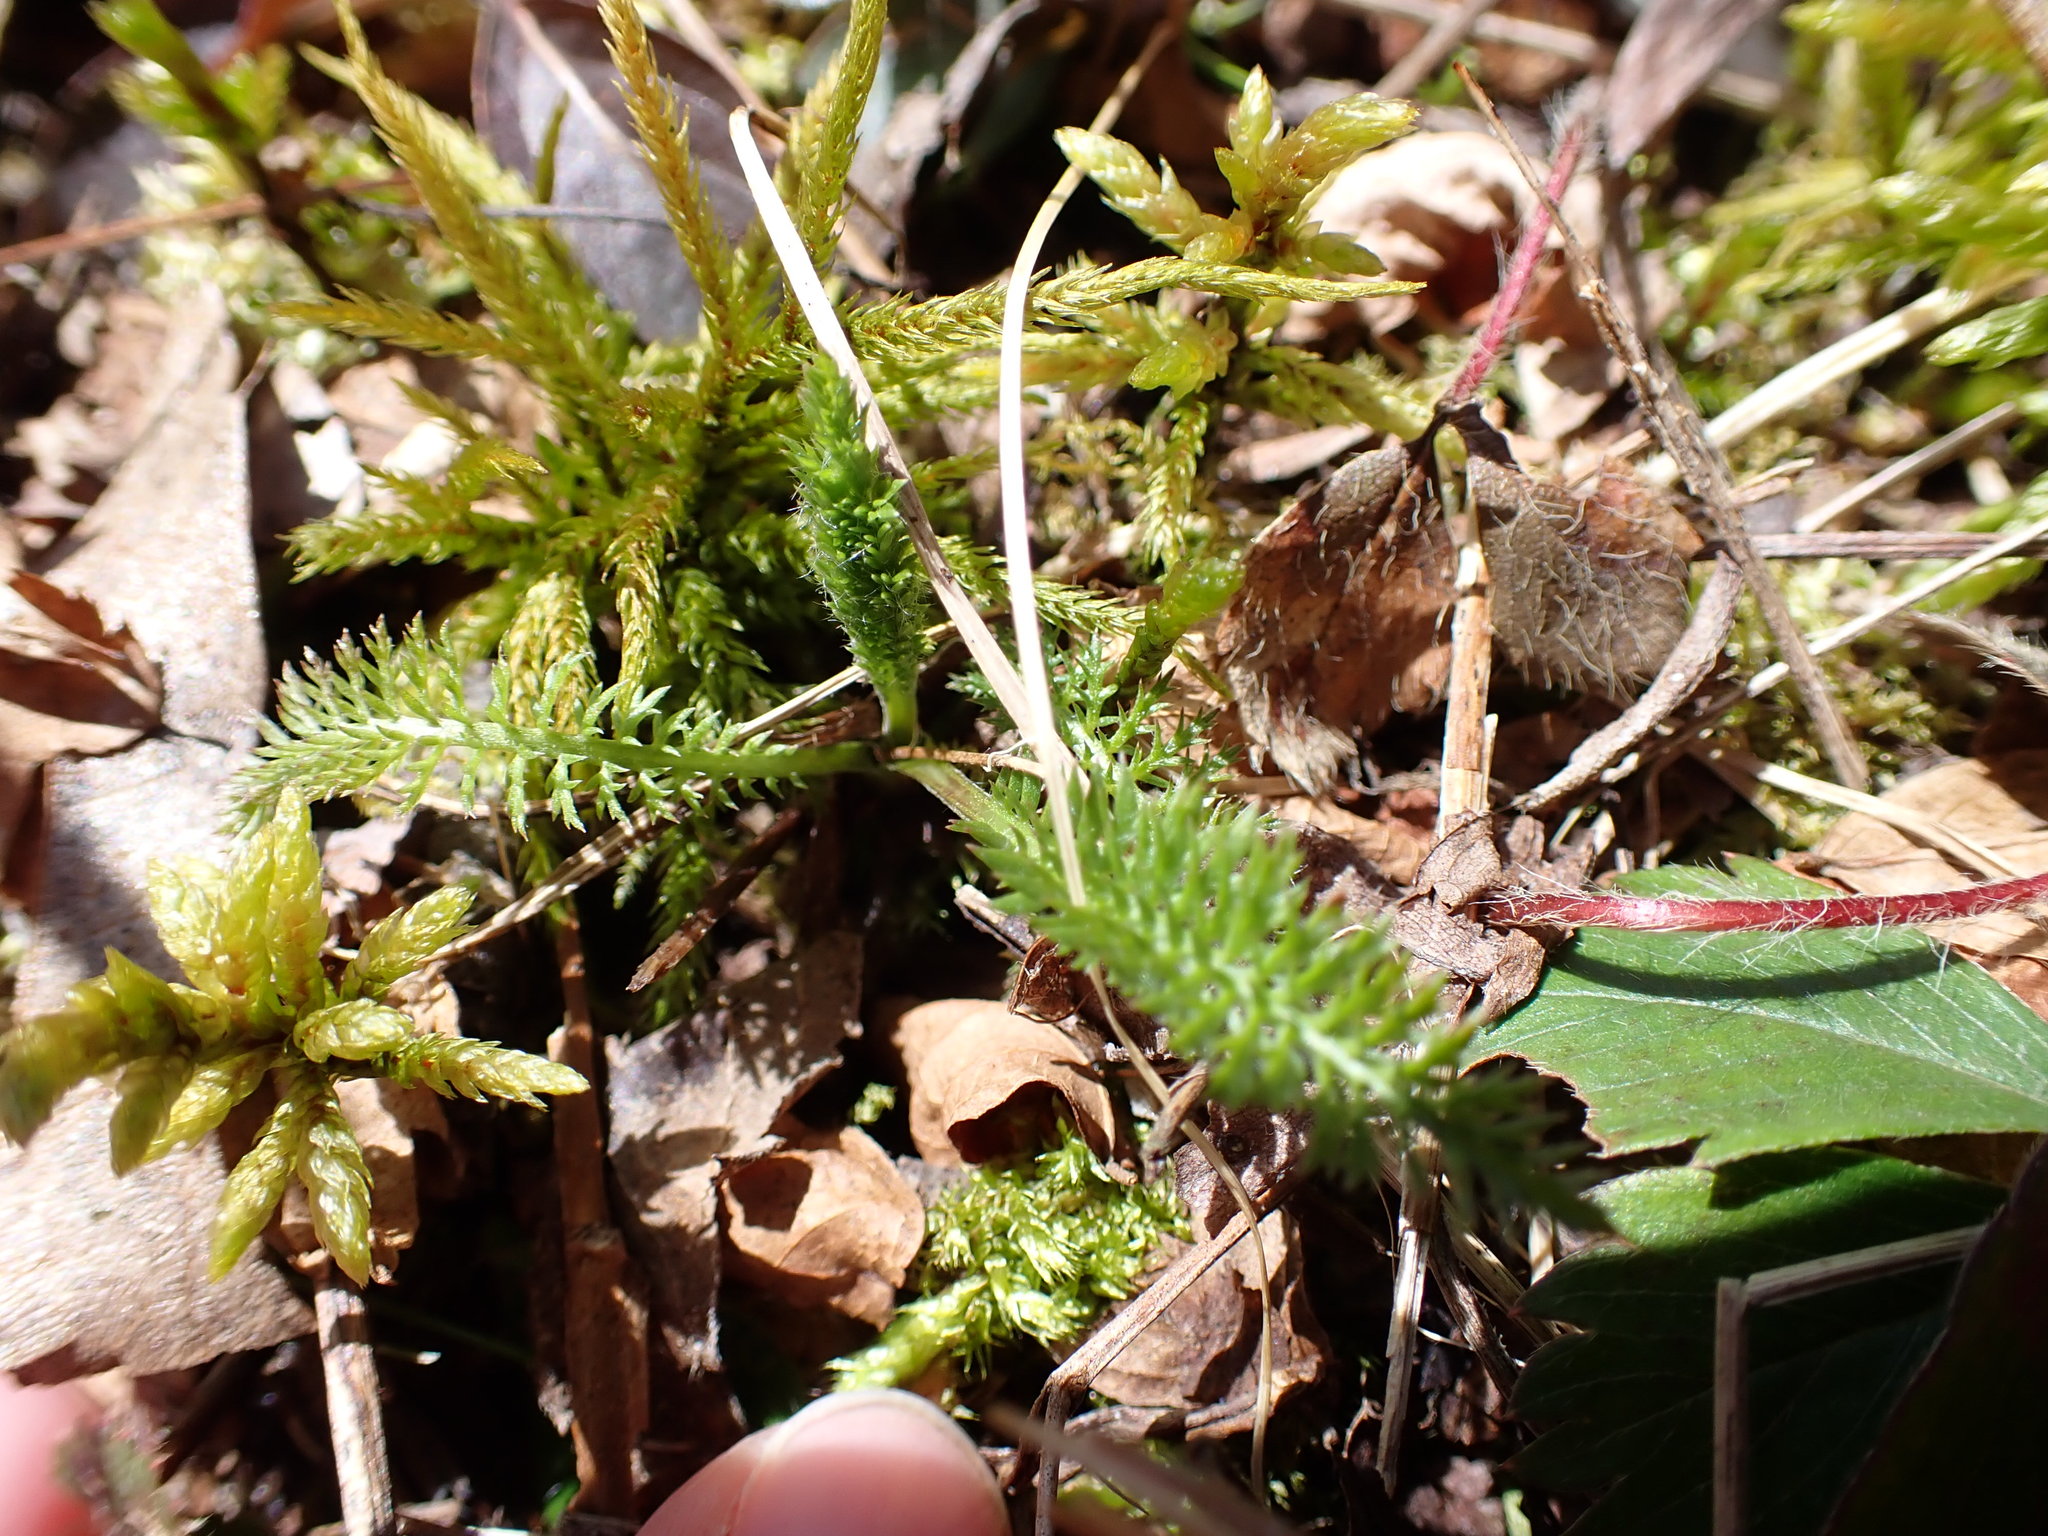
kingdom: Plantae
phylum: Tracheophyta
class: Magnoliopsida
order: Asterales
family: Asteraceae
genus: Achillea
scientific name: Achillea millefolium
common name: Yarrow
